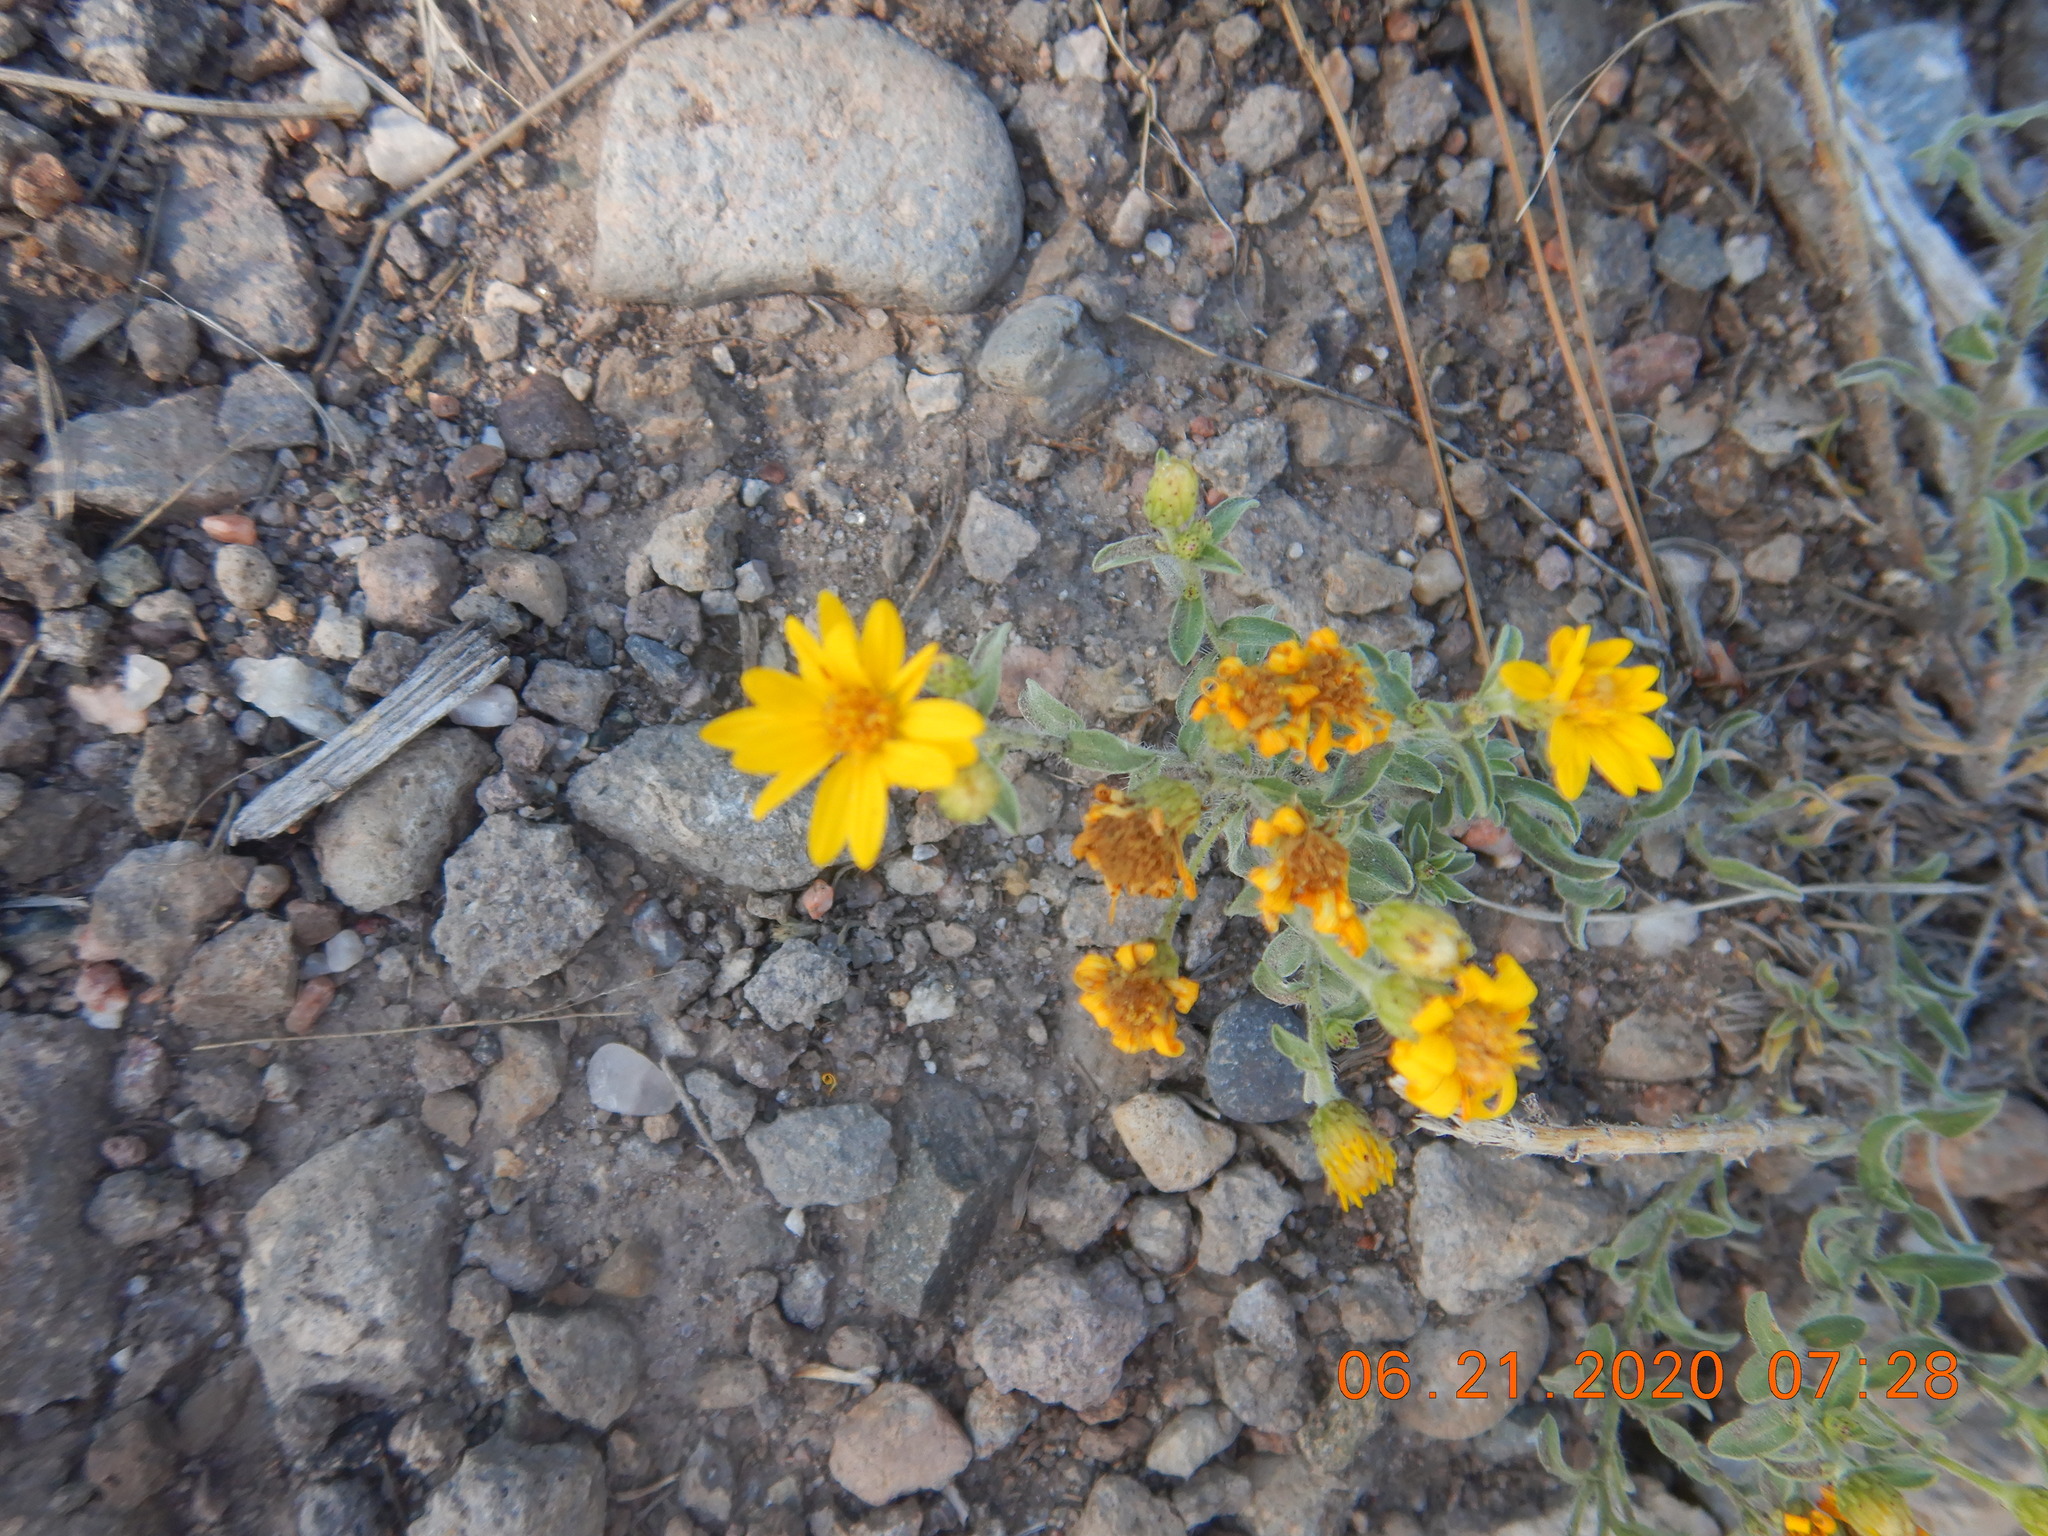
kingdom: Plantae
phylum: Tracheophyta
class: Magnoliopsida
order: Asterales
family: Asteraceae
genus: Heterotheca
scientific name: Heterotheca villosa
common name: Hairy false goldenaster
